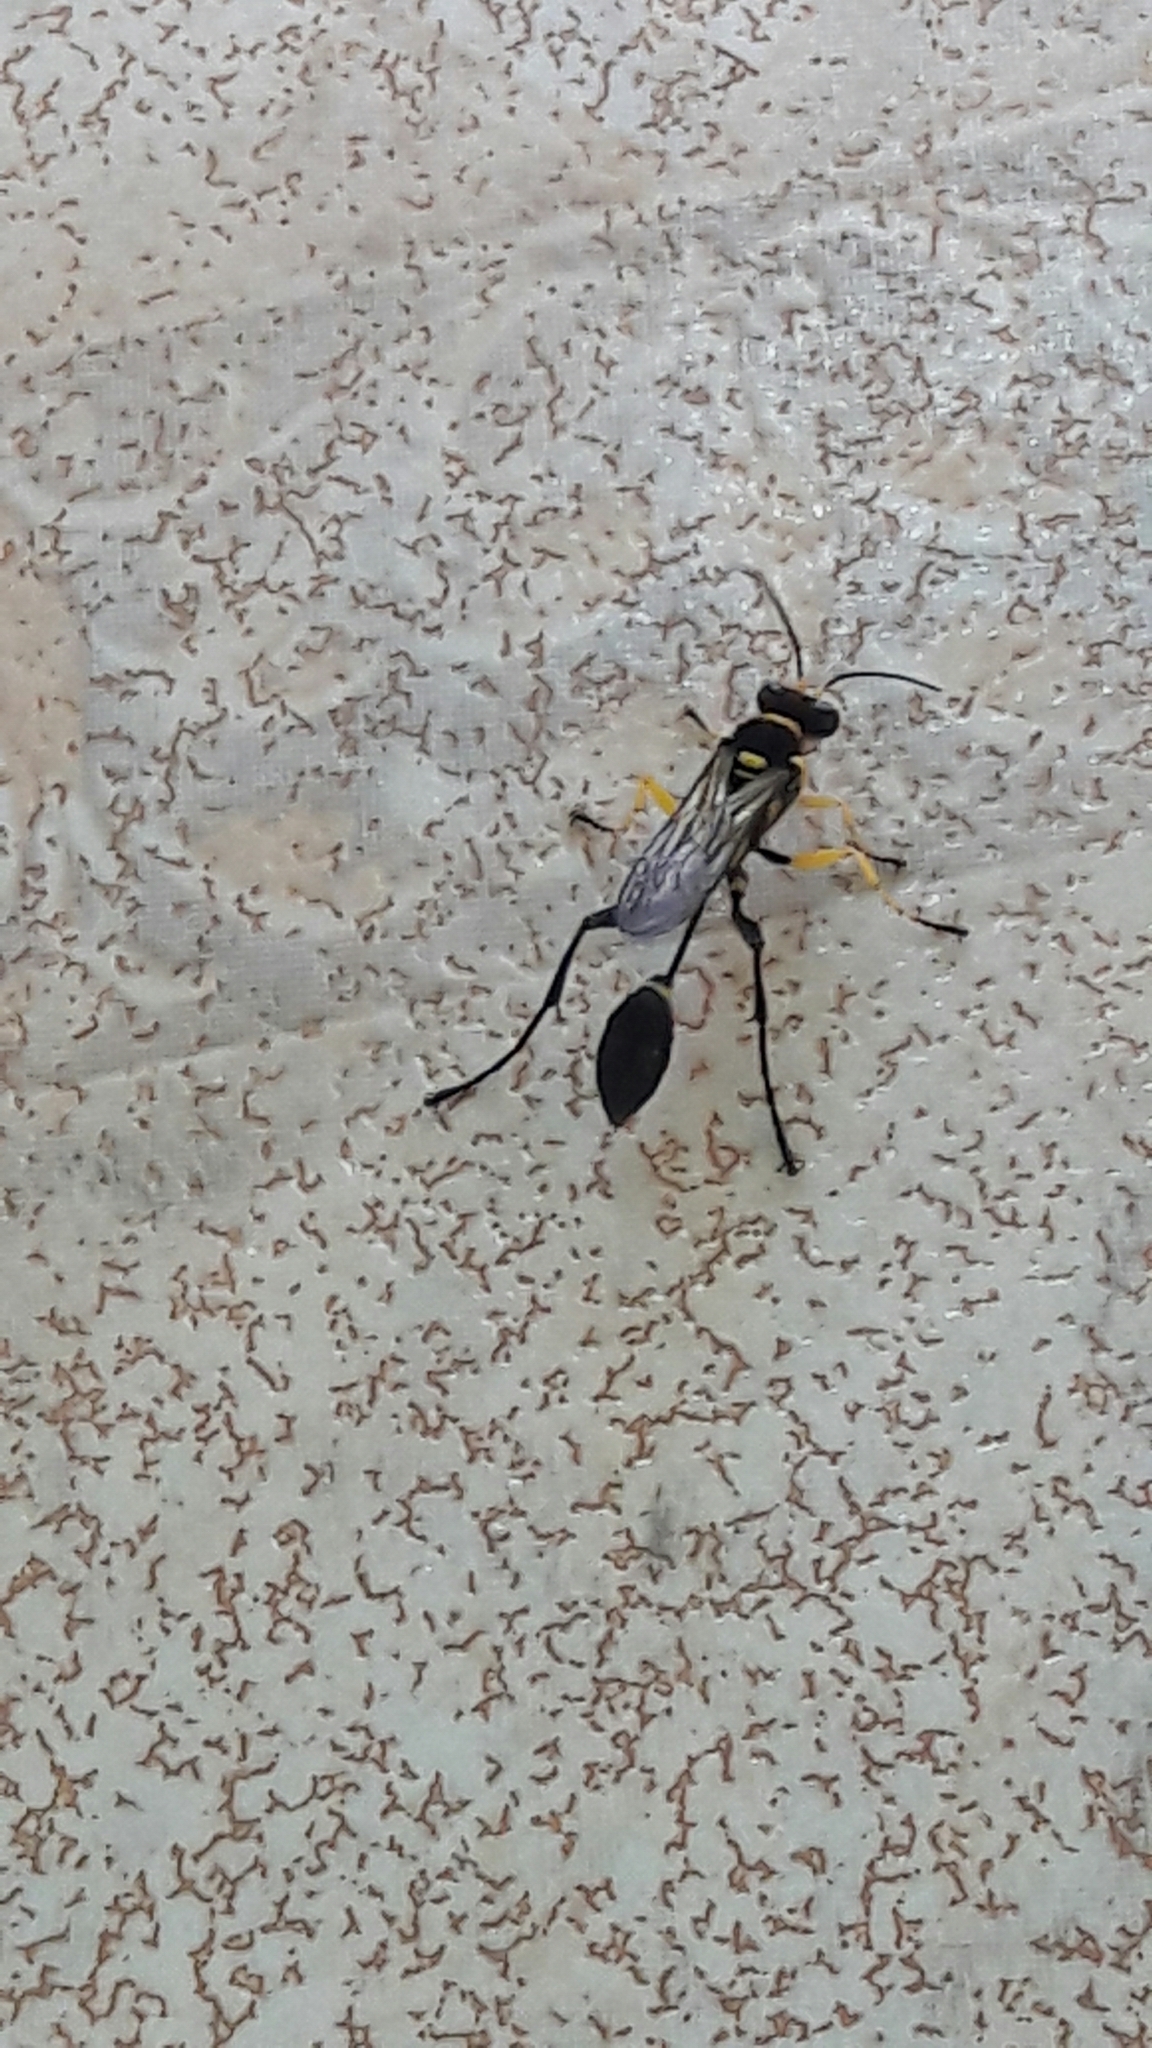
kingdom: Animalia
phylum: Arthropoda
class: Insecta
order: Hymenoptera
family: Sphecidae
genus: Sceliphron
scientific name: Sceliphron fistularium
